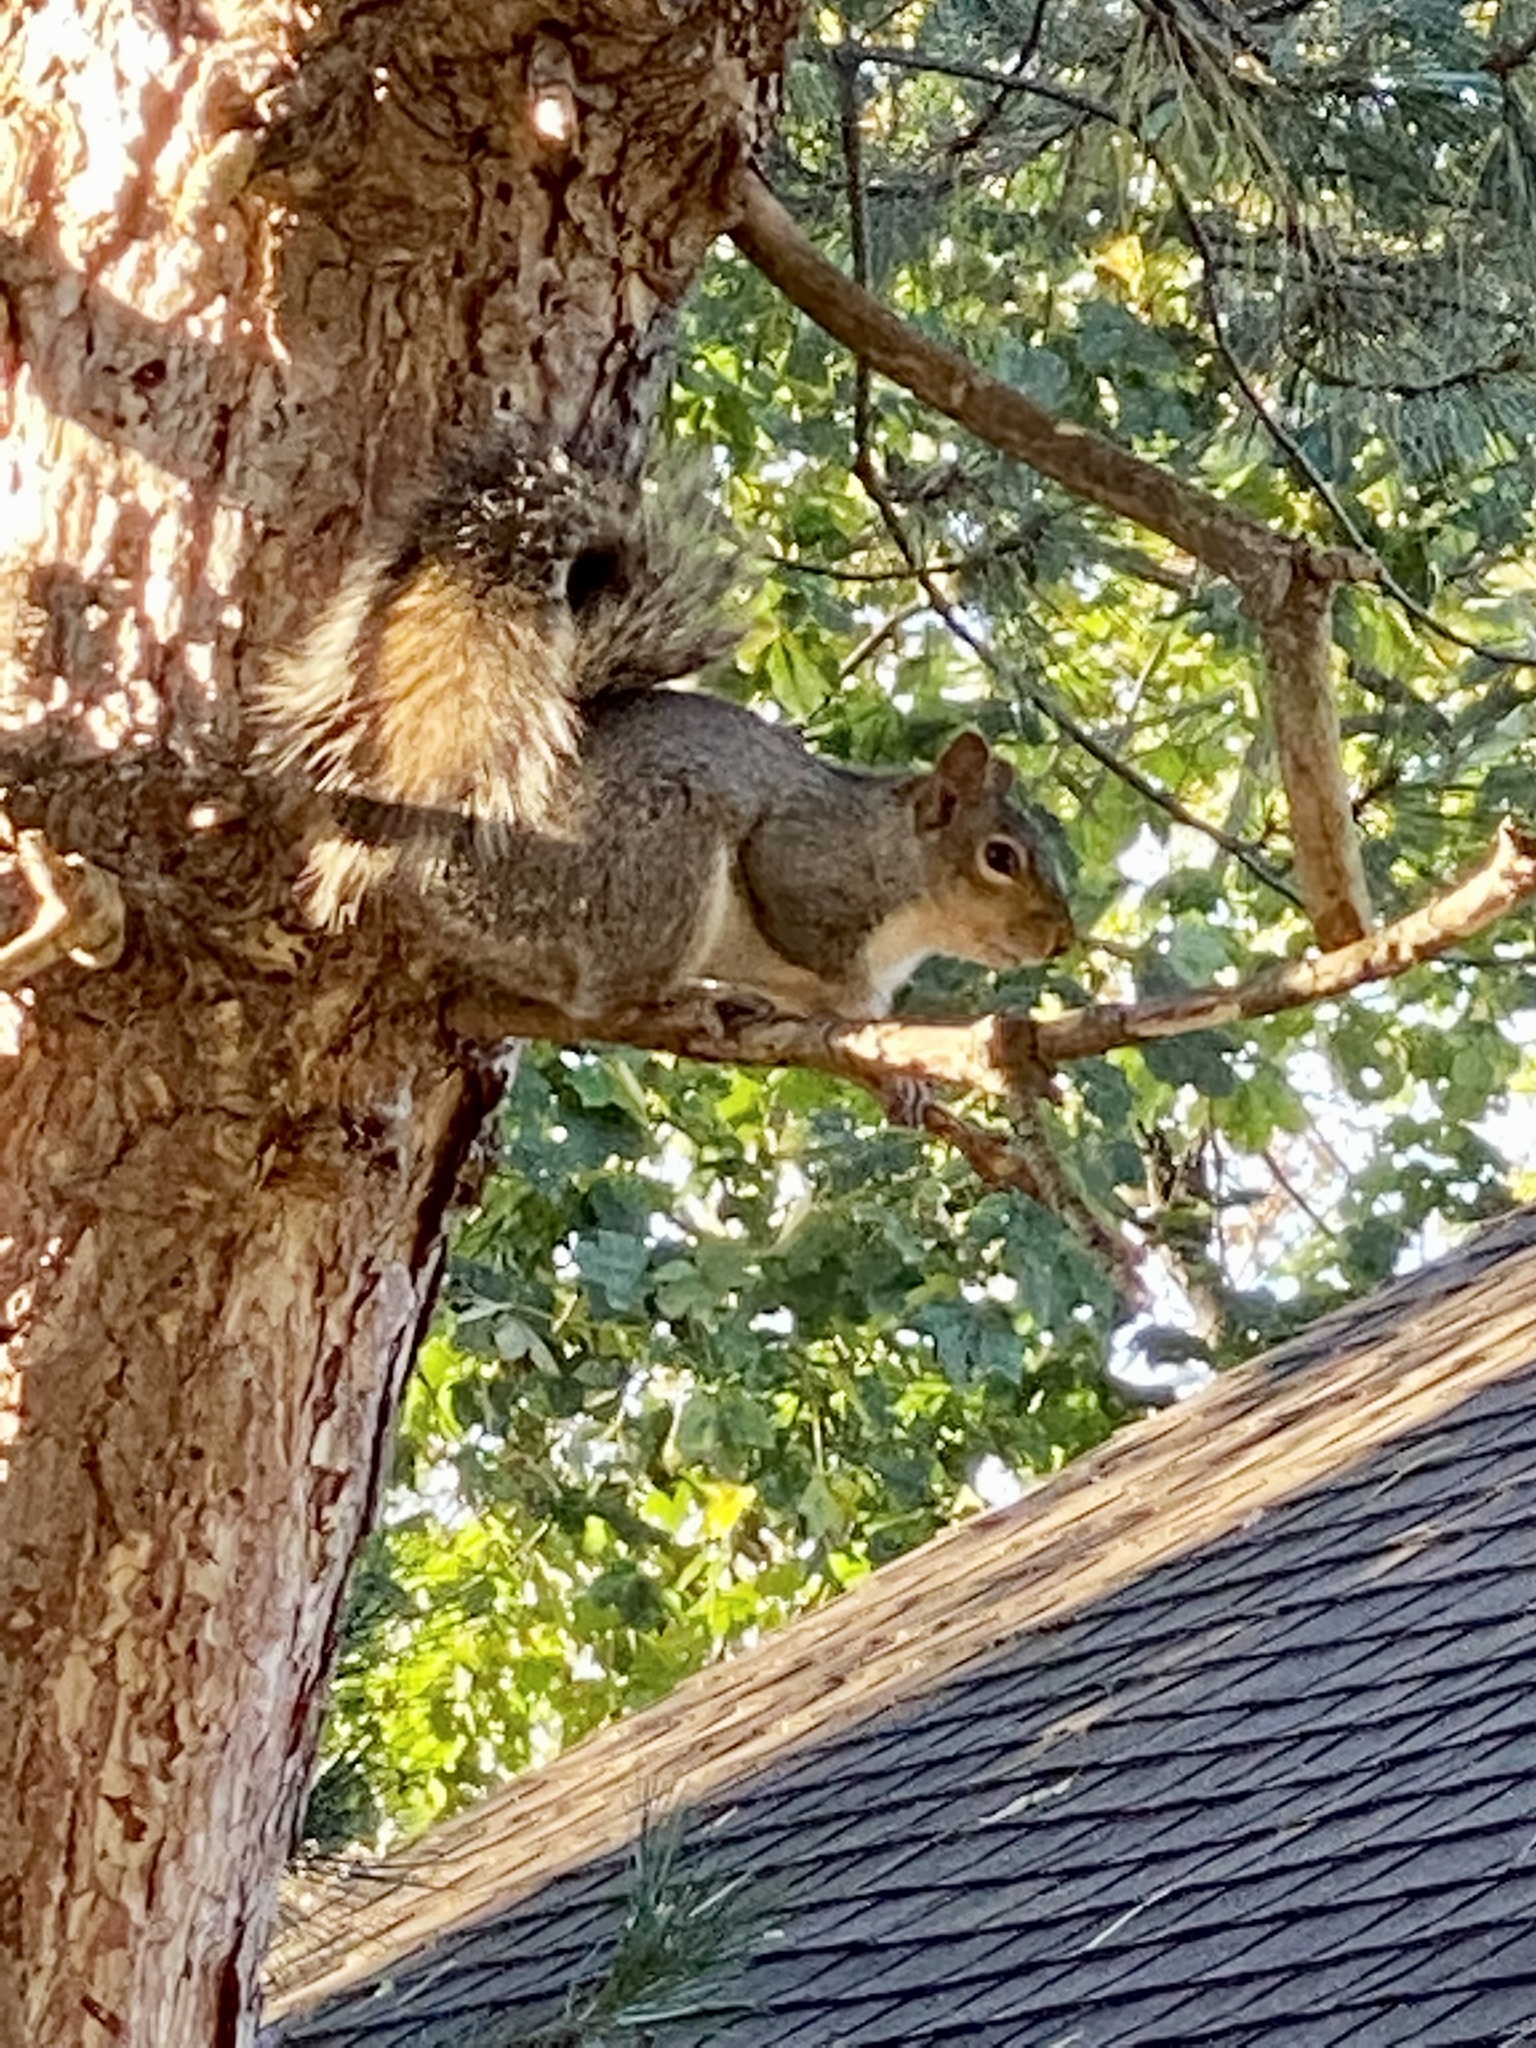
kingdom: Animalia
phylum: Chordata
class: Mammalia
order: Rodentia
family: Sciuridae
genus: Sciurus
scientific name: Sciurus carolinensis
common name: Eastern gray squirrel
